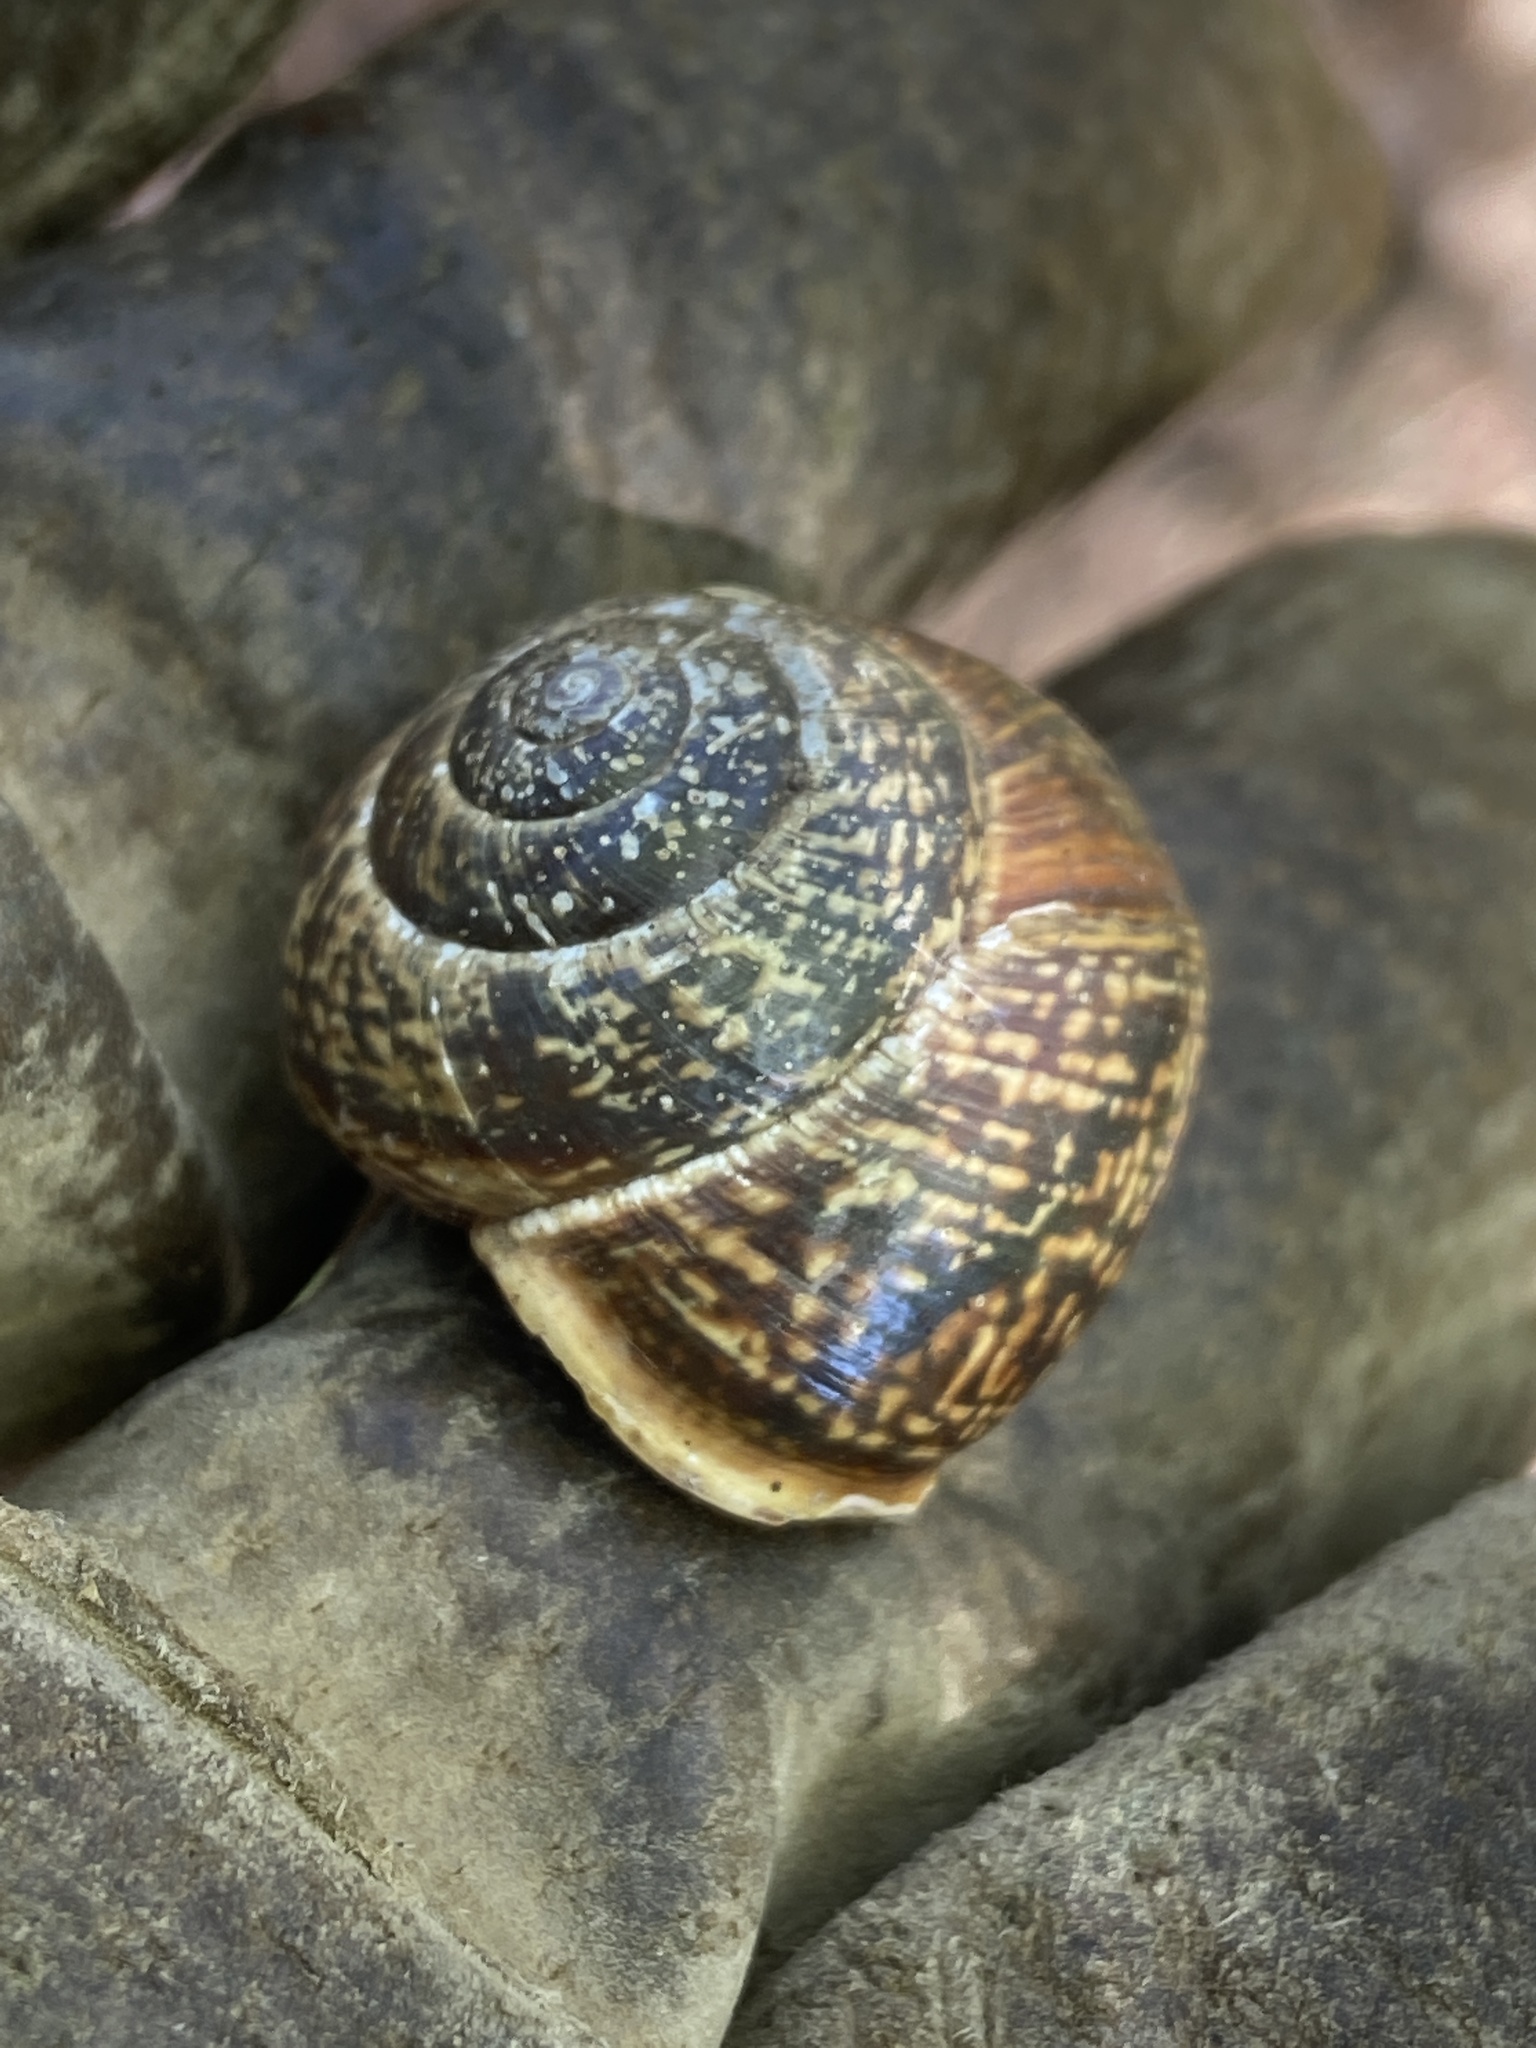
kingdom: Animalia
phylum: Mollusca
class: Gastropoda
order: Stylommatophora
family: Helicidae
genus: Arianta
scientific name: Arianta arbustorum
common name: Copse snail
